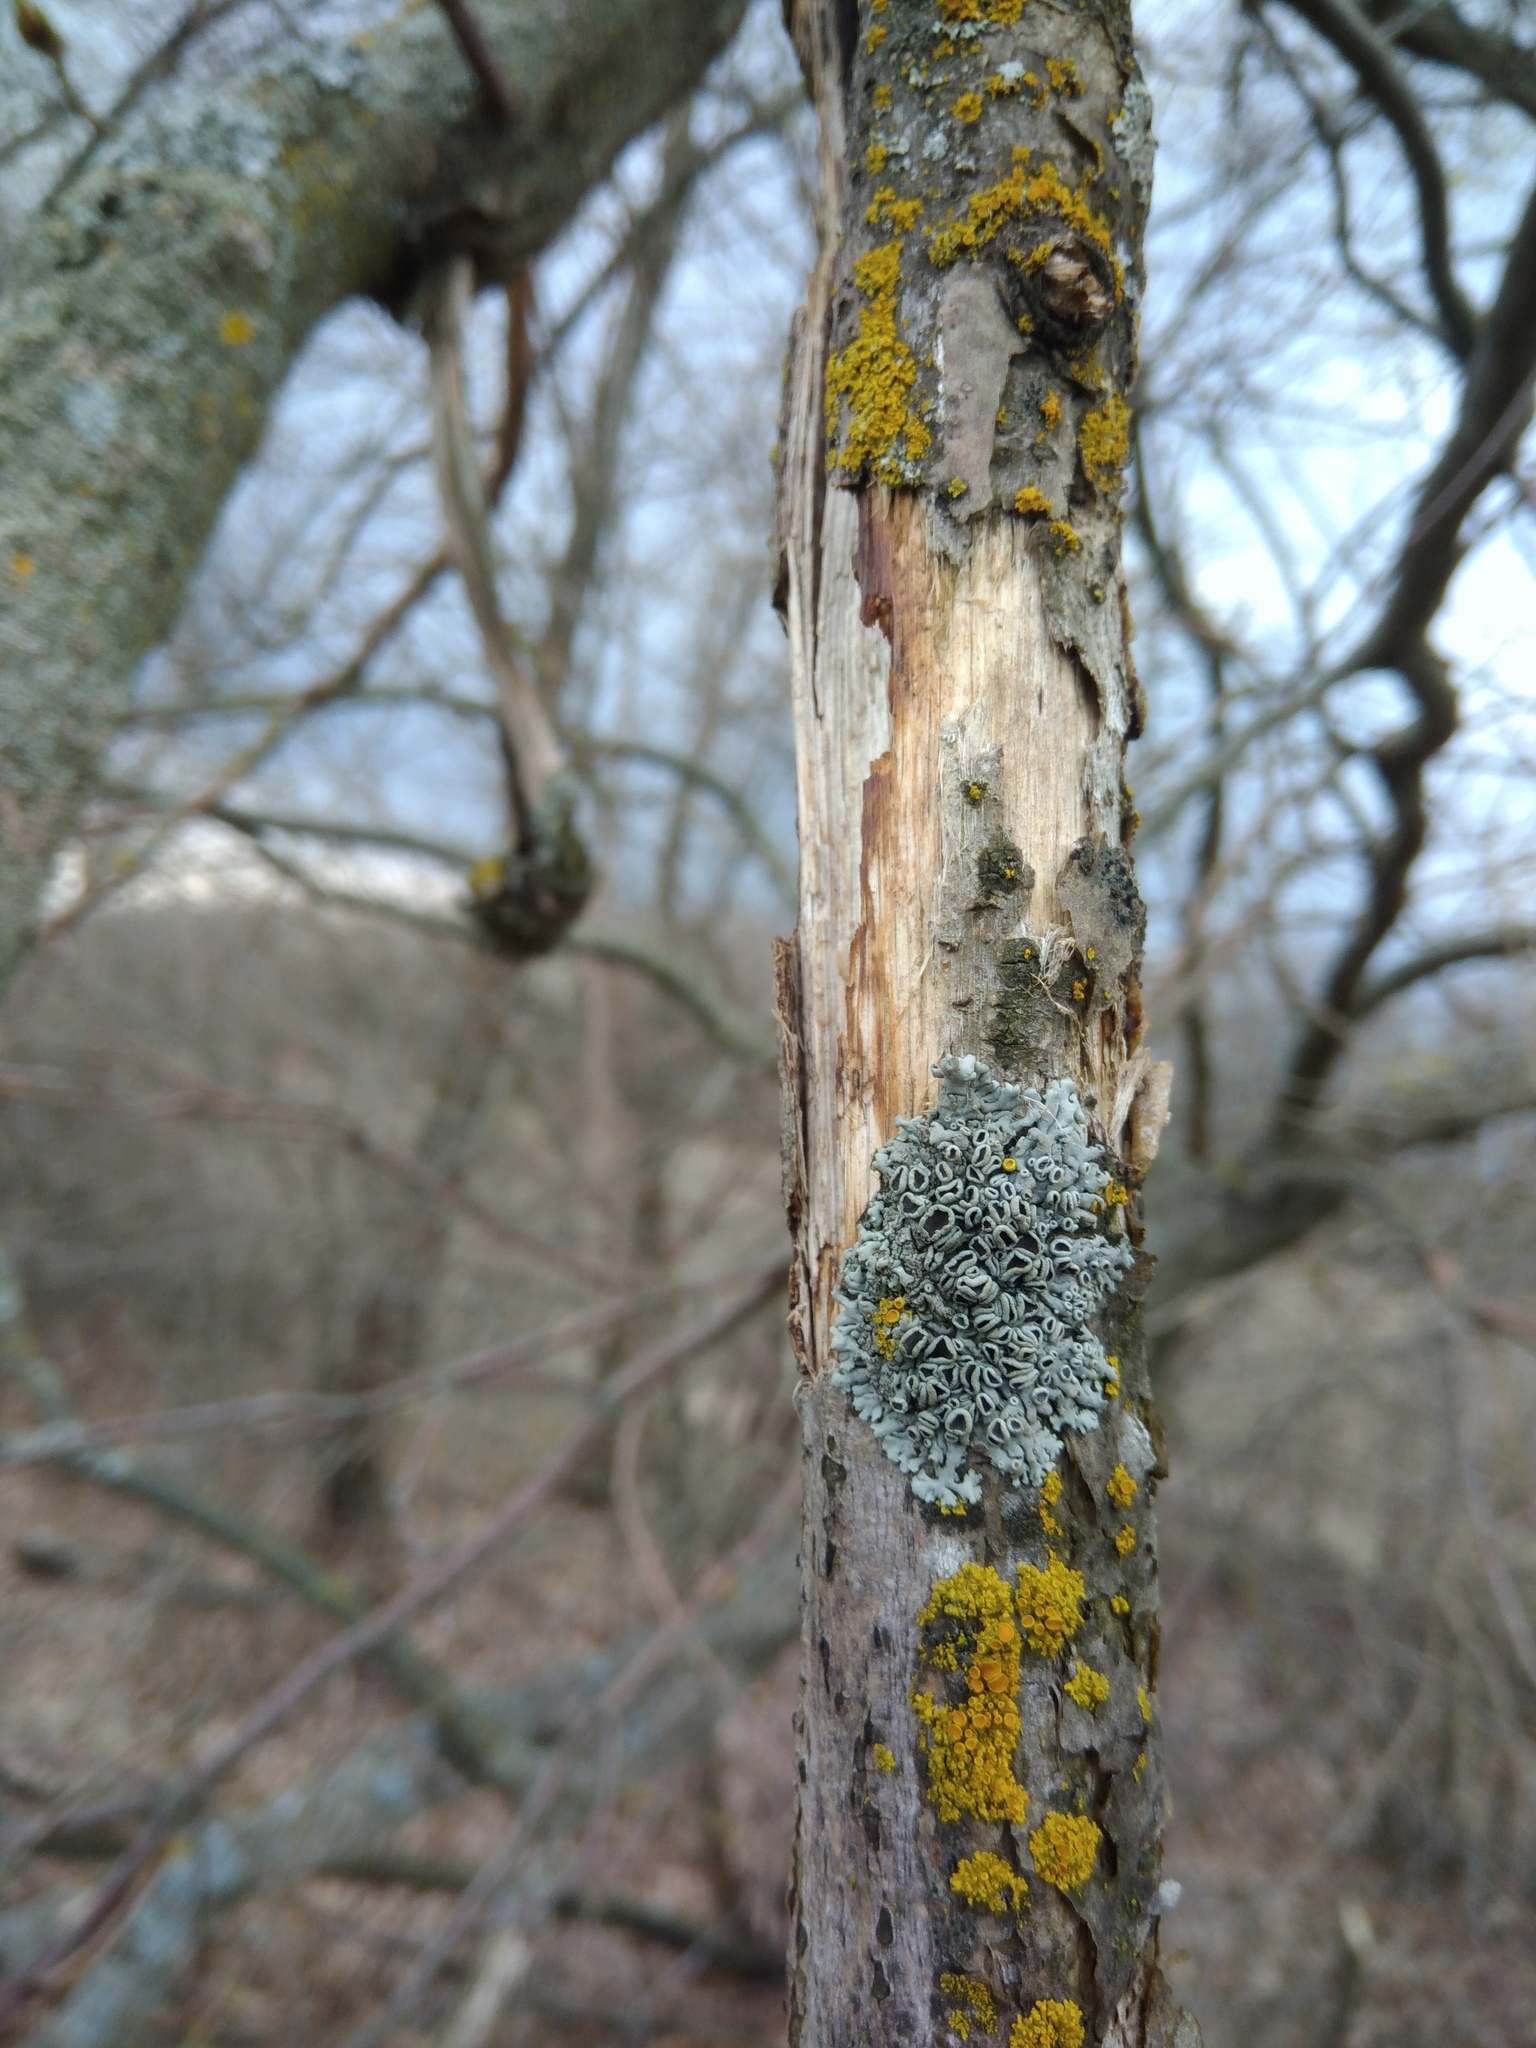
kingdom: Fungi
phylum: Ascomycota
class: Lecanoromycetes
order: Caliciales
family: Physciaceae
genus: Physcia
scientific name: Physcia stellaris
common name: Star rosette lichen
